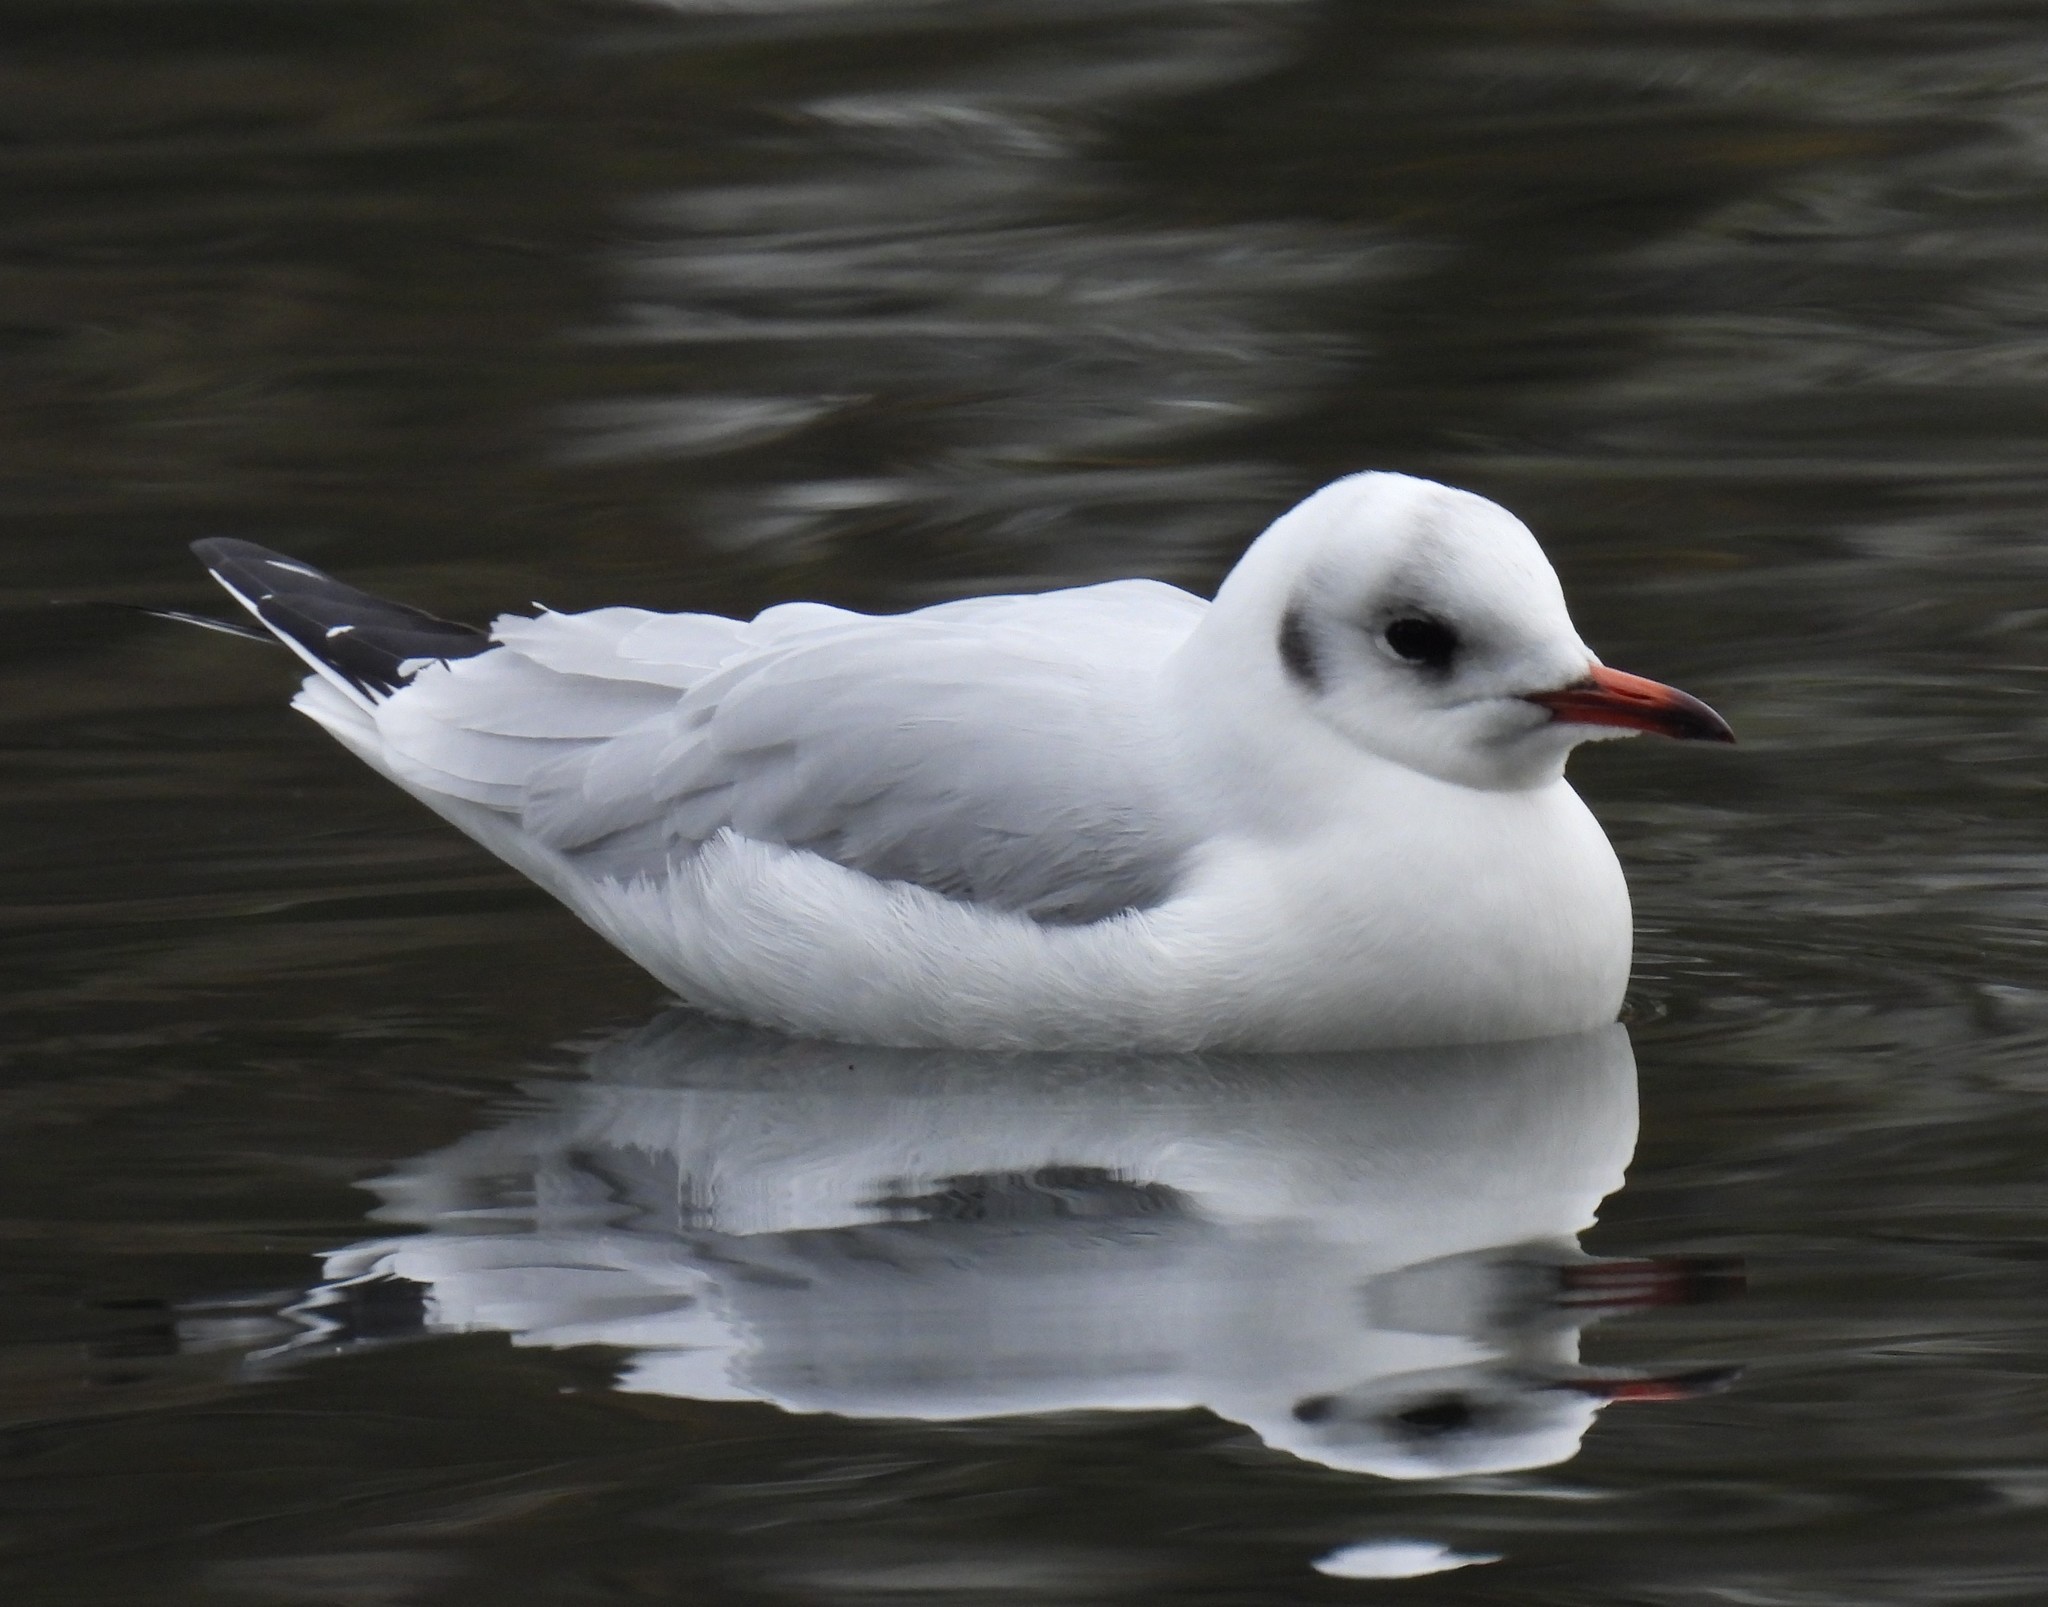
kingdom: Animalia
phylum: Chordata
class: Aves
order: Charadriiformes
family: Laridae
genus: Chroicocephalus
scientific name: Chroicocephalus ridibundus
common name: Black-headed gull
